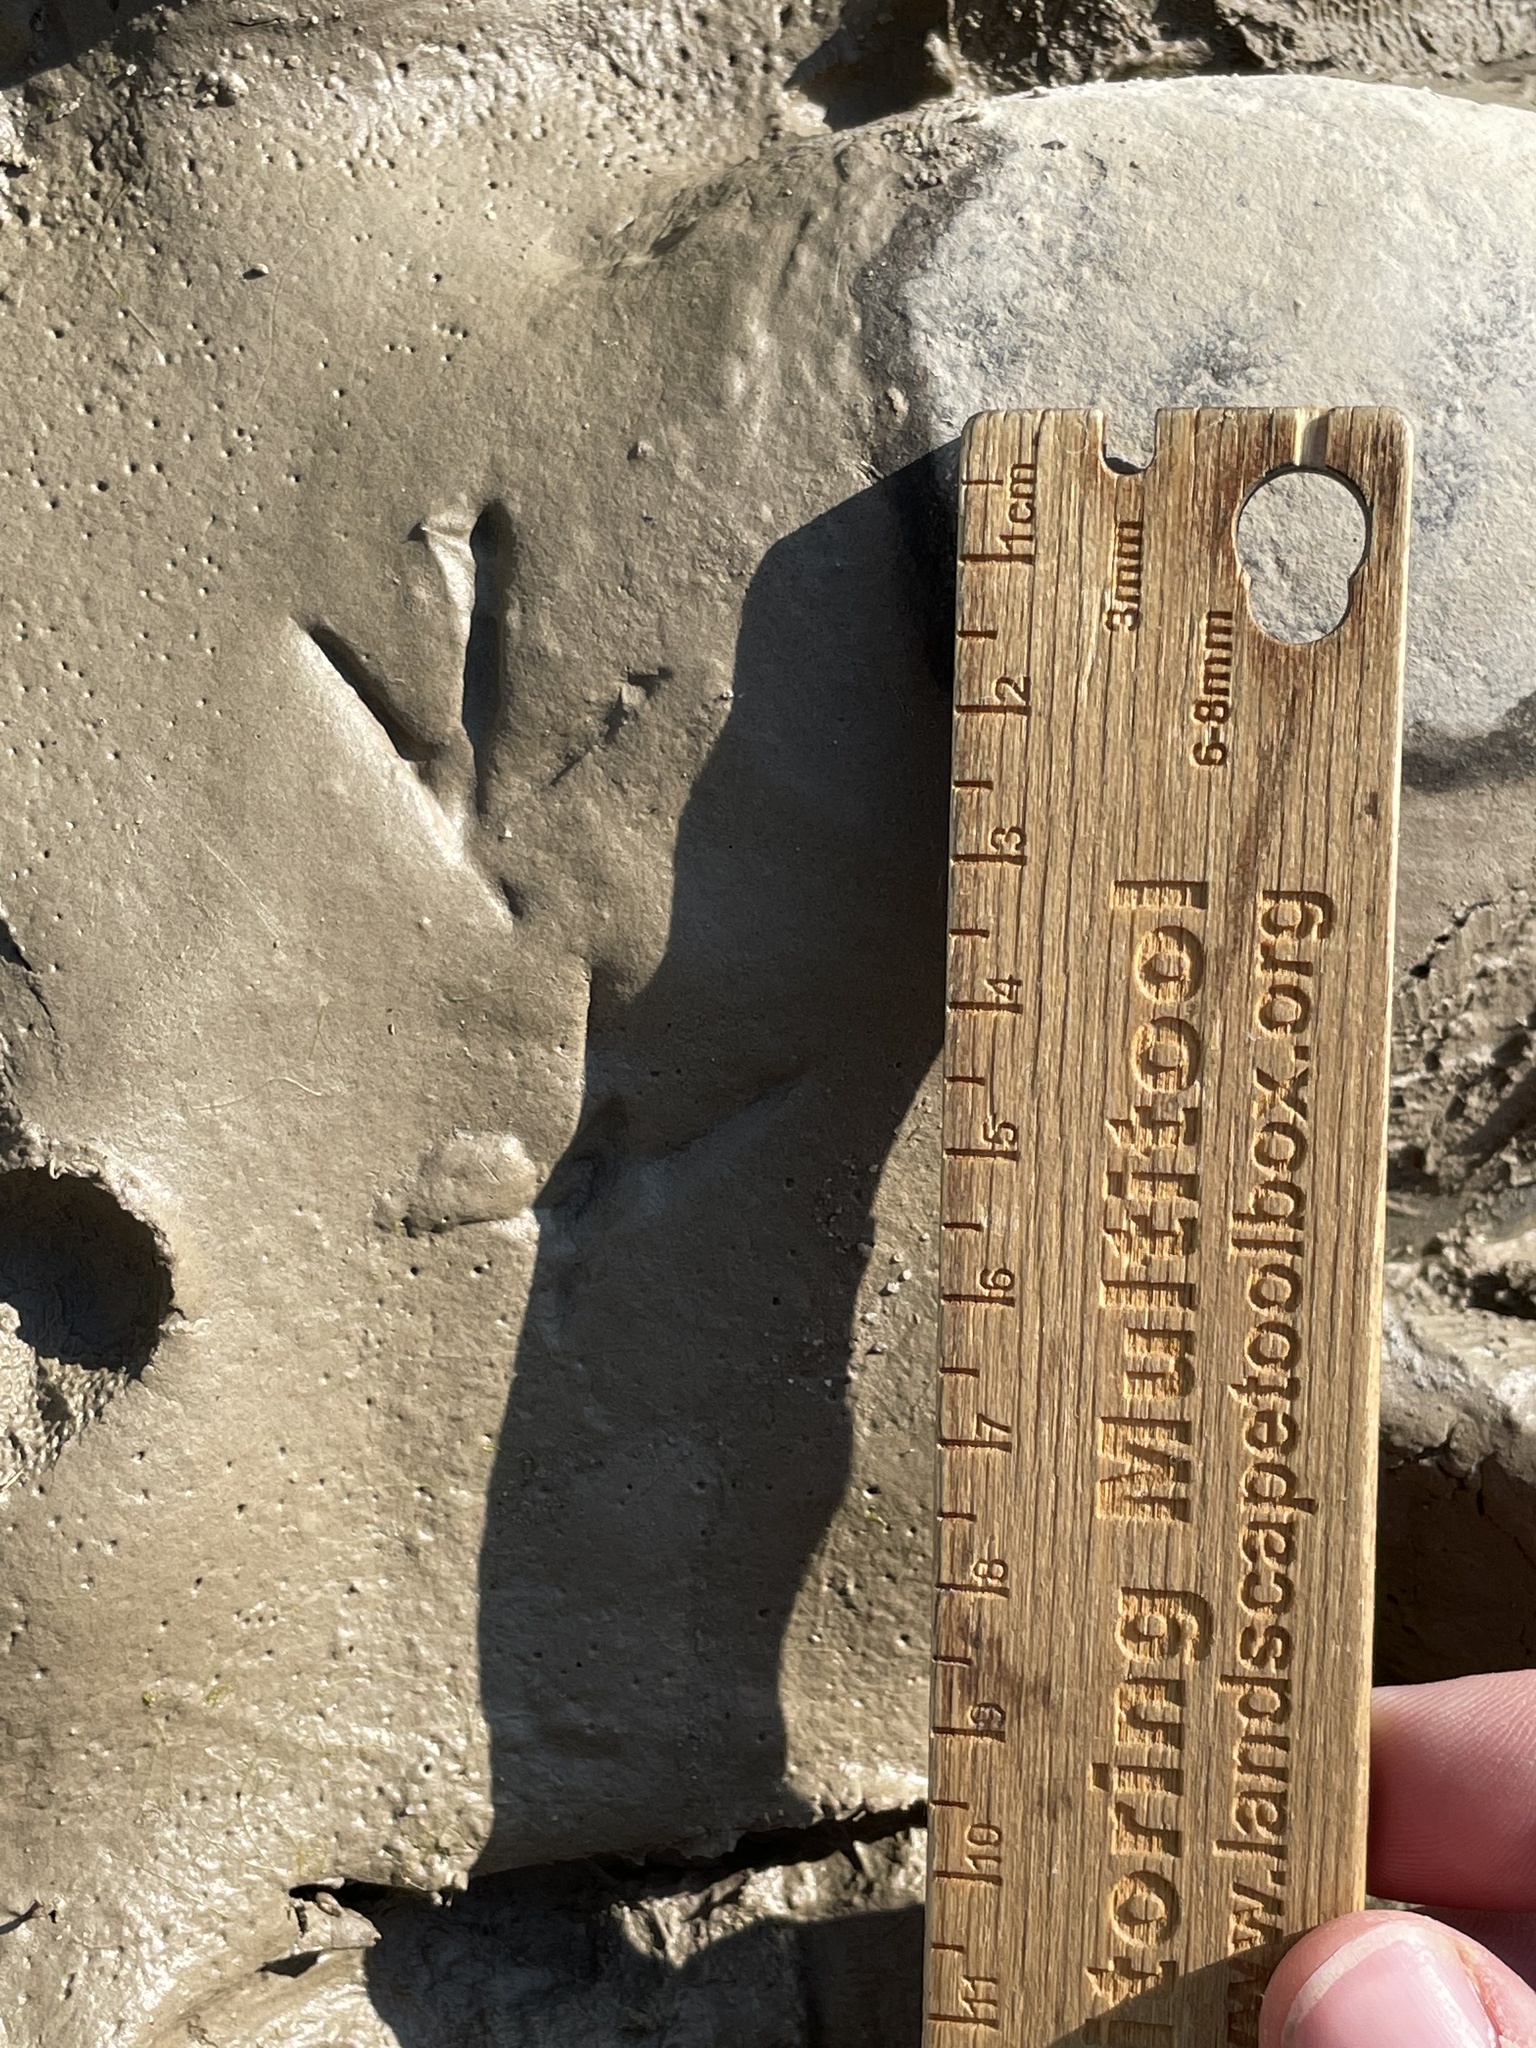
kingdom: Animalia
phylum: Chordata
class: Aves
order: Charadriiformes
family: Scolopacidae
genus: Actitis
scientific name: Actitis macularius
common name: Spotted sandpiper
